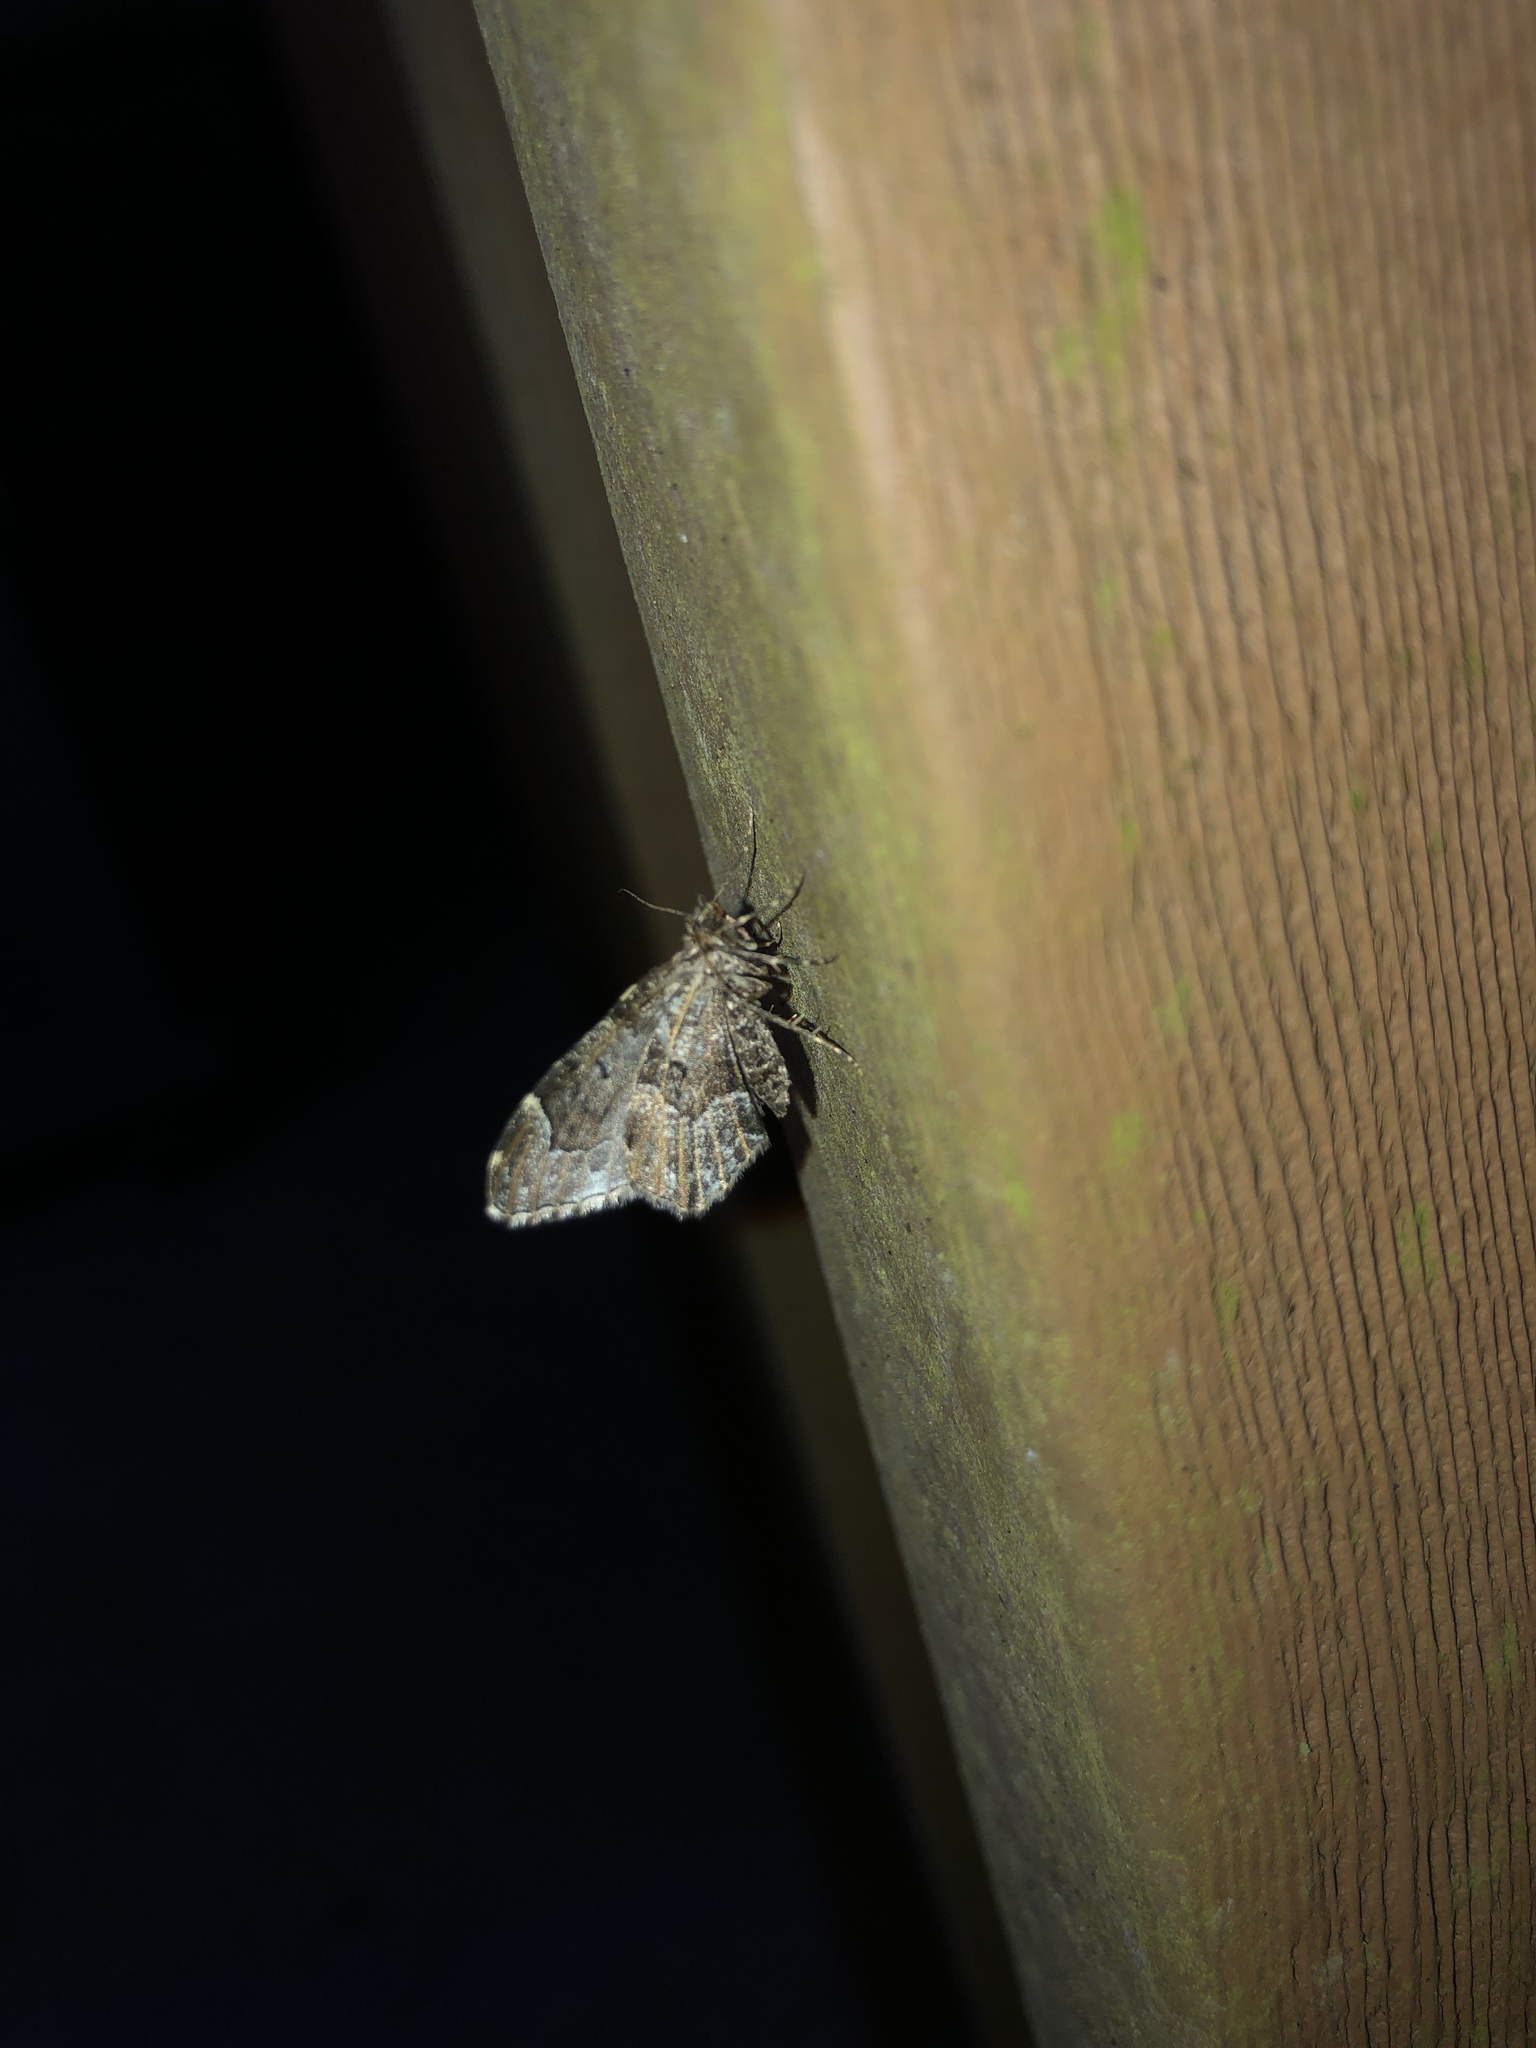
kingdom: Animalia
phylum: Arthropoda
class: Insecta
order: Lepidoptera
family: Geometridae
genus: Ceratodalia
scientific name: Ceratodalia gueneata
